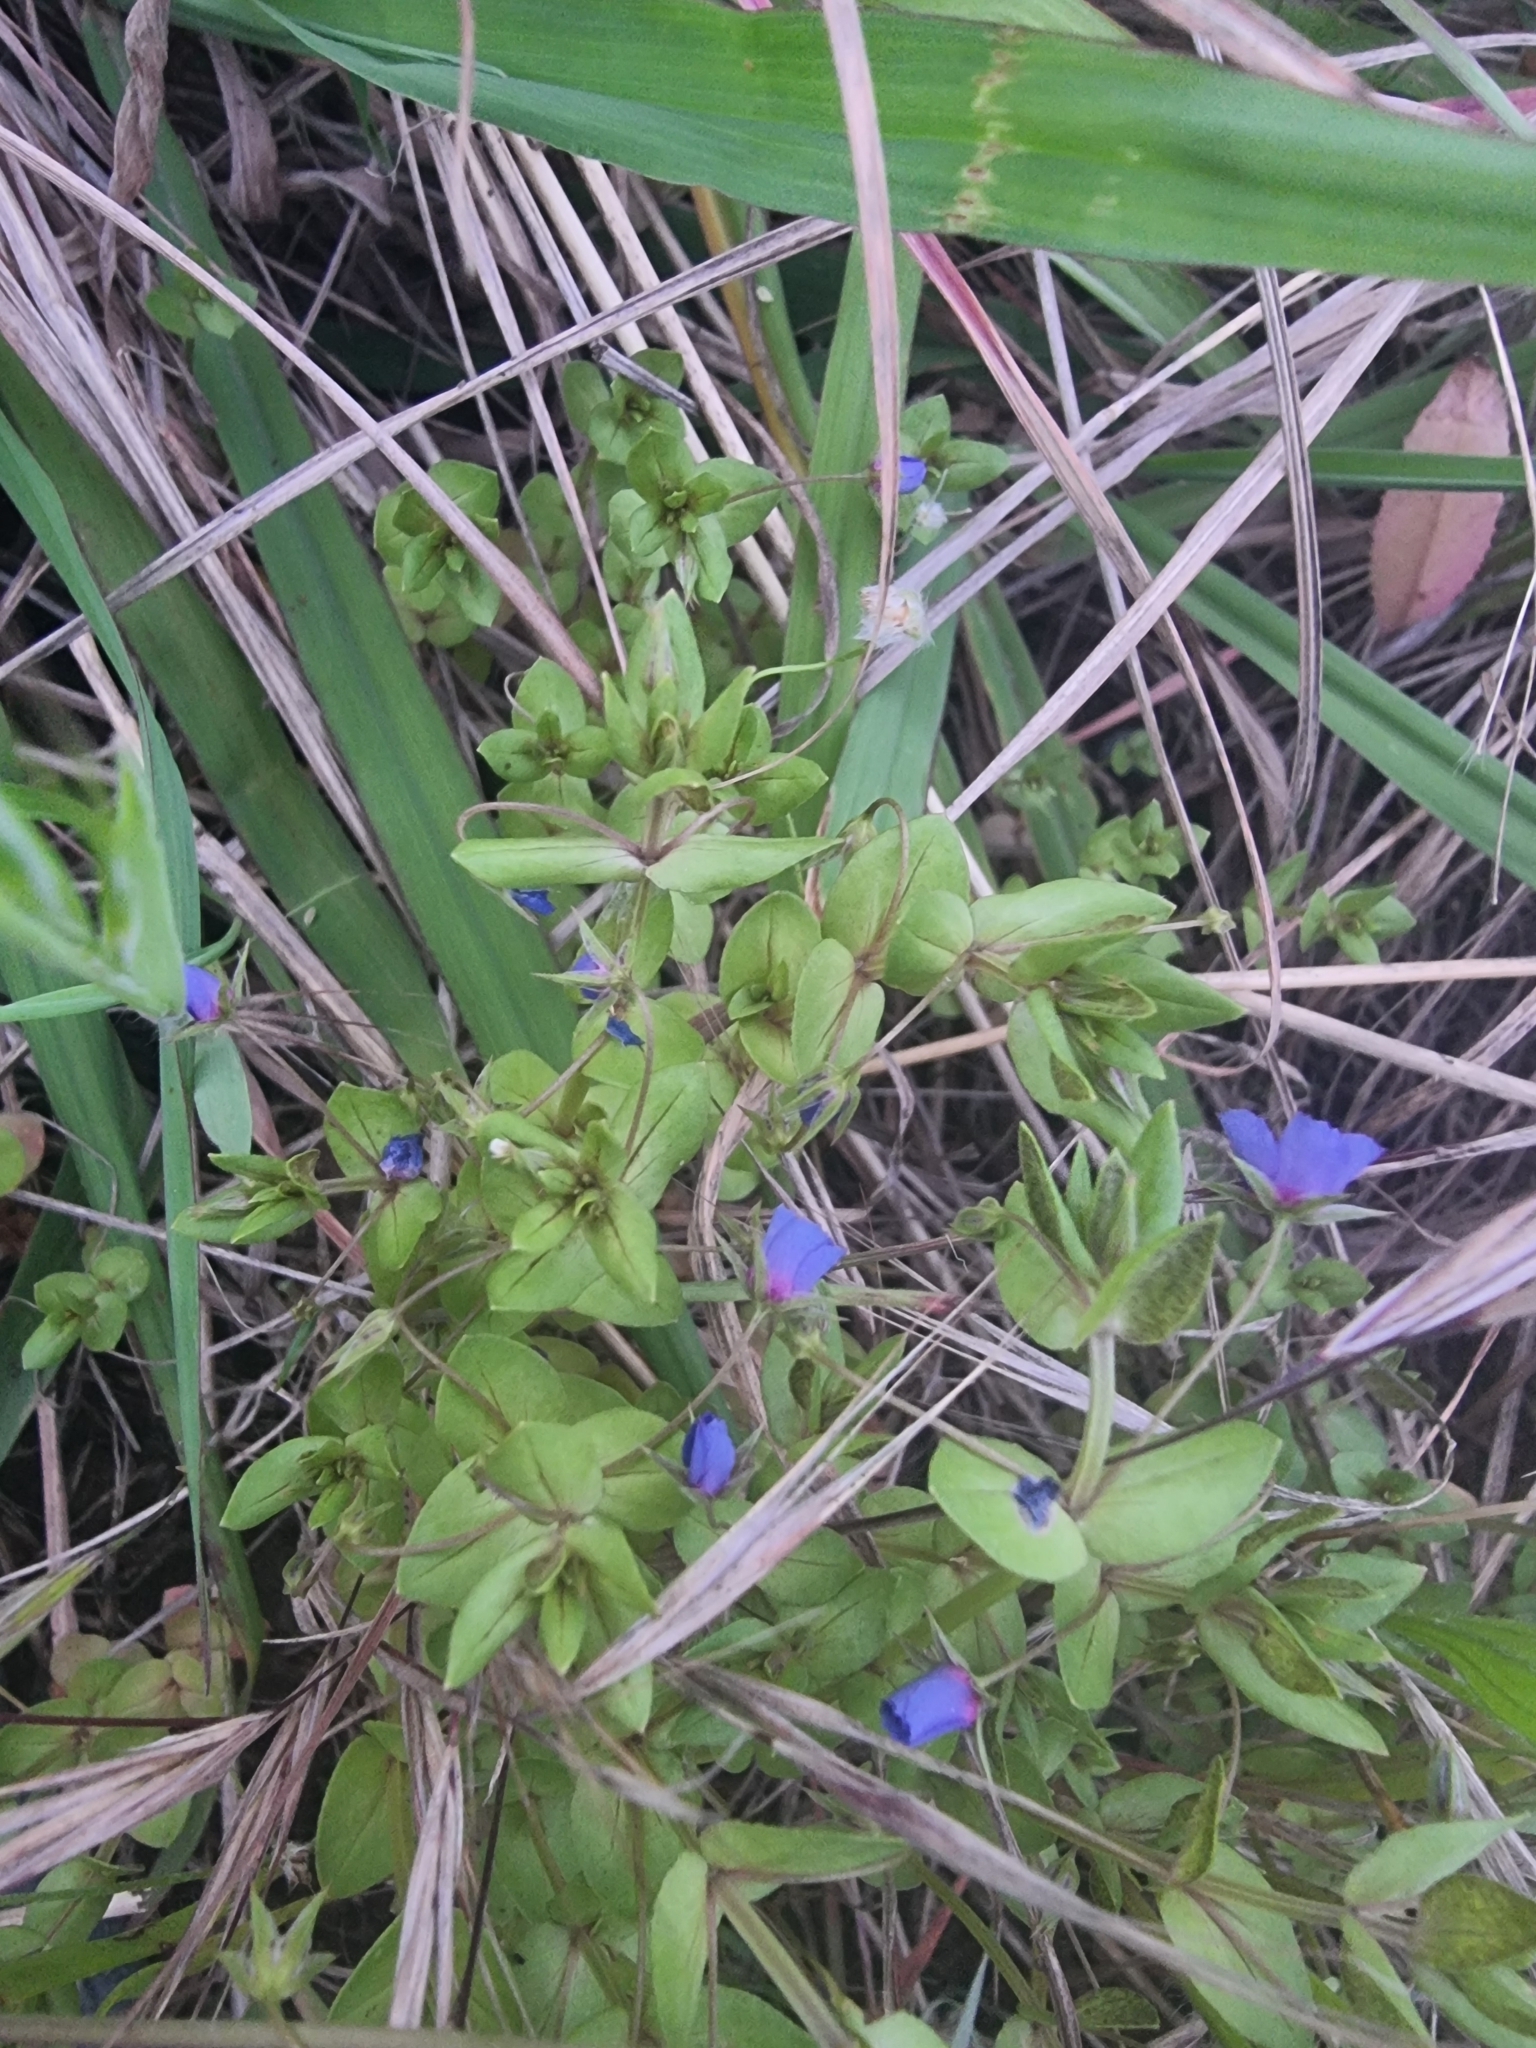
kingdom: Plantae
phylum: Tracheophyta
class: Magnoliopsida
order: Ericales
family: Primulaceae
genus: Lysimachia
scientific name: Lysimachia loeflingii
